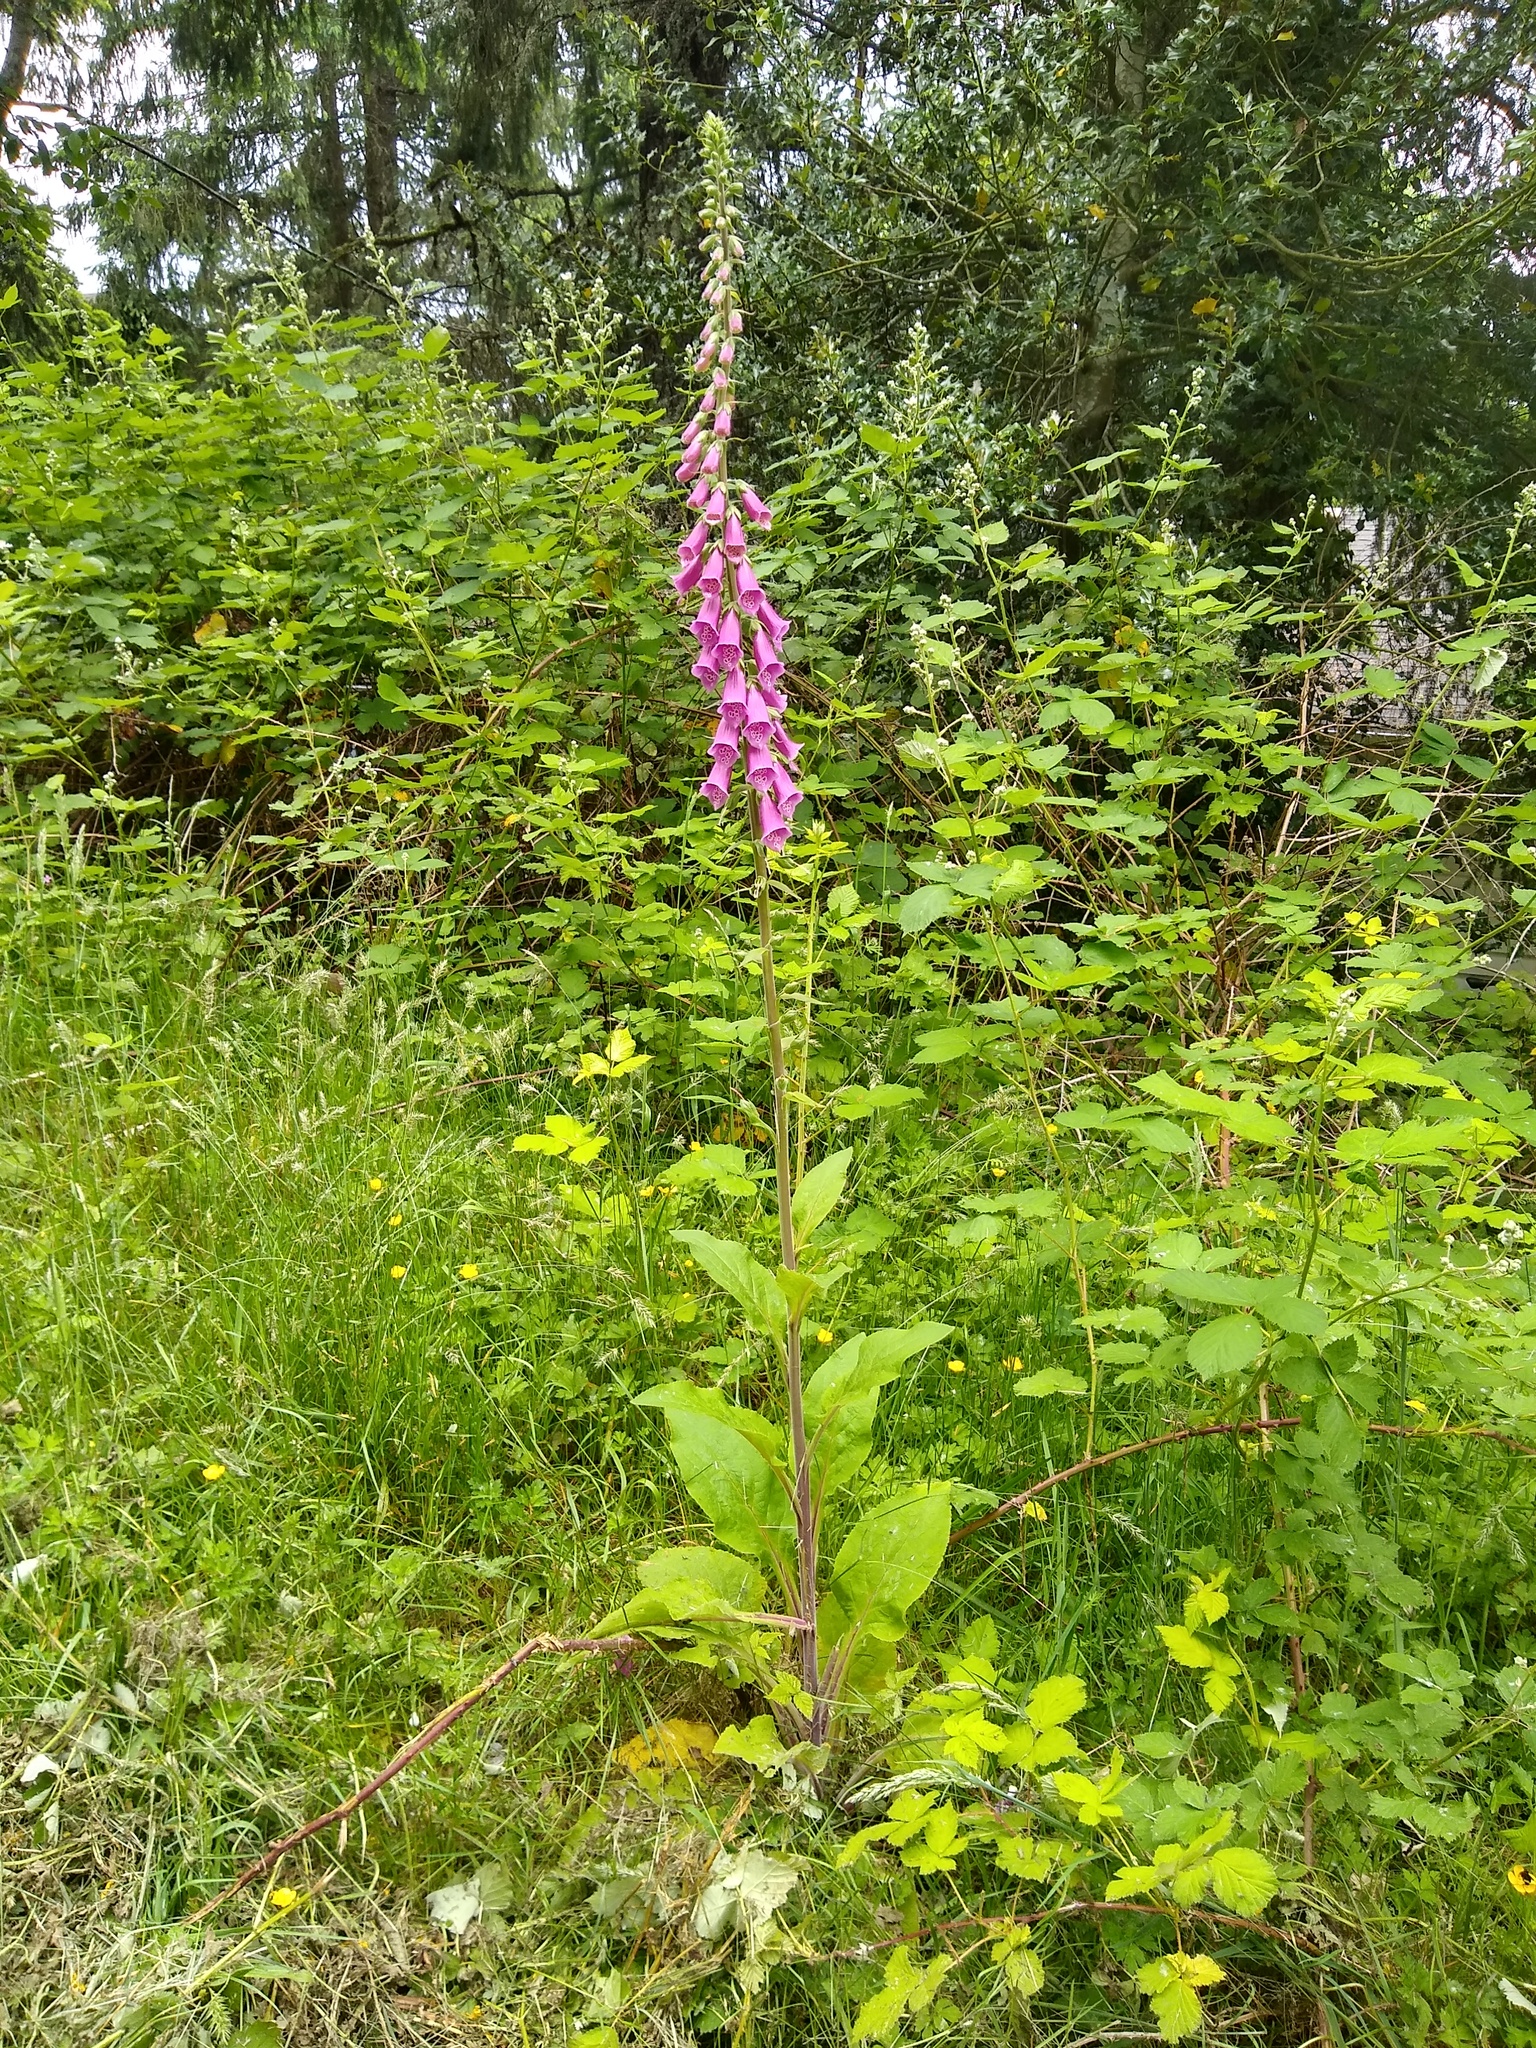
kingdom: Plantae
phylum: Tracheophyta
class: Magnoliopsida
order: Lamiales
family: Plantaginaceae
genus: Digitalis
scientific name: Digitalis purpurea
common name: Foxglove
